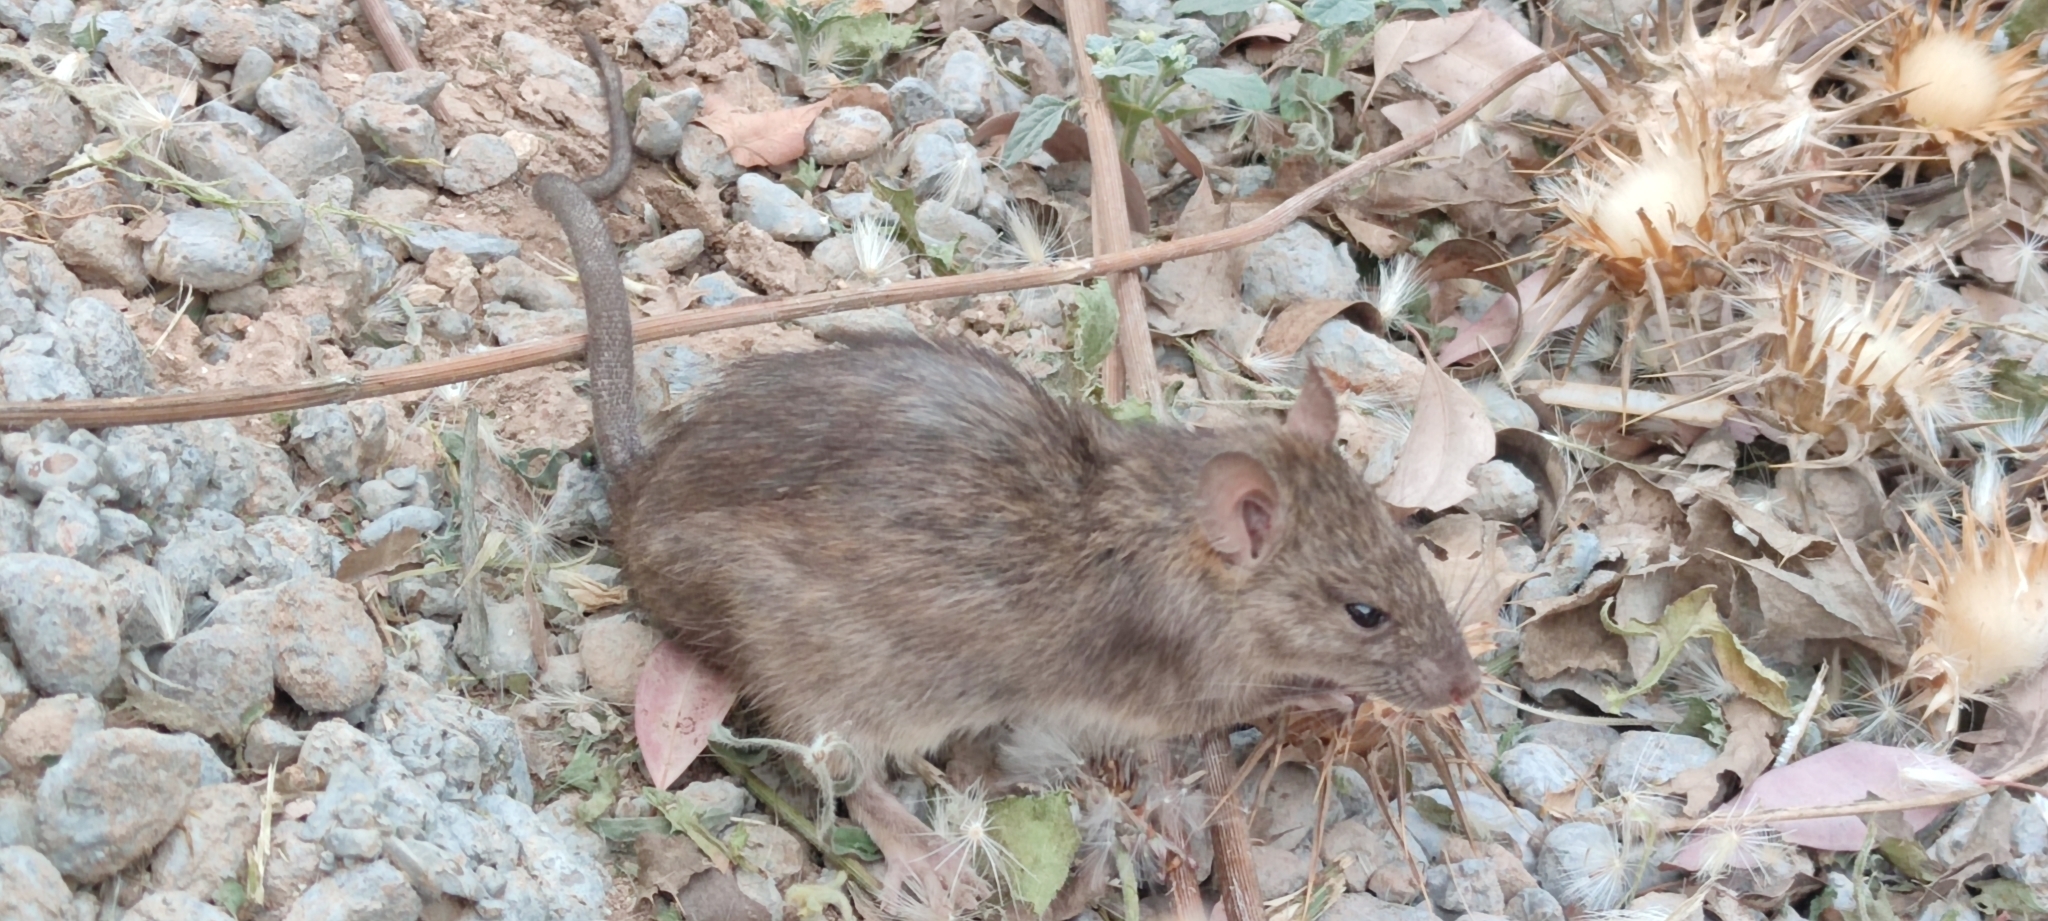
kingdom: Animalia
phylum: Chordata
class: Mammalia
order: Rodentia
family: Muridae
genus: Rattus
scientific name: Rattus rattus
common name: Black rat
